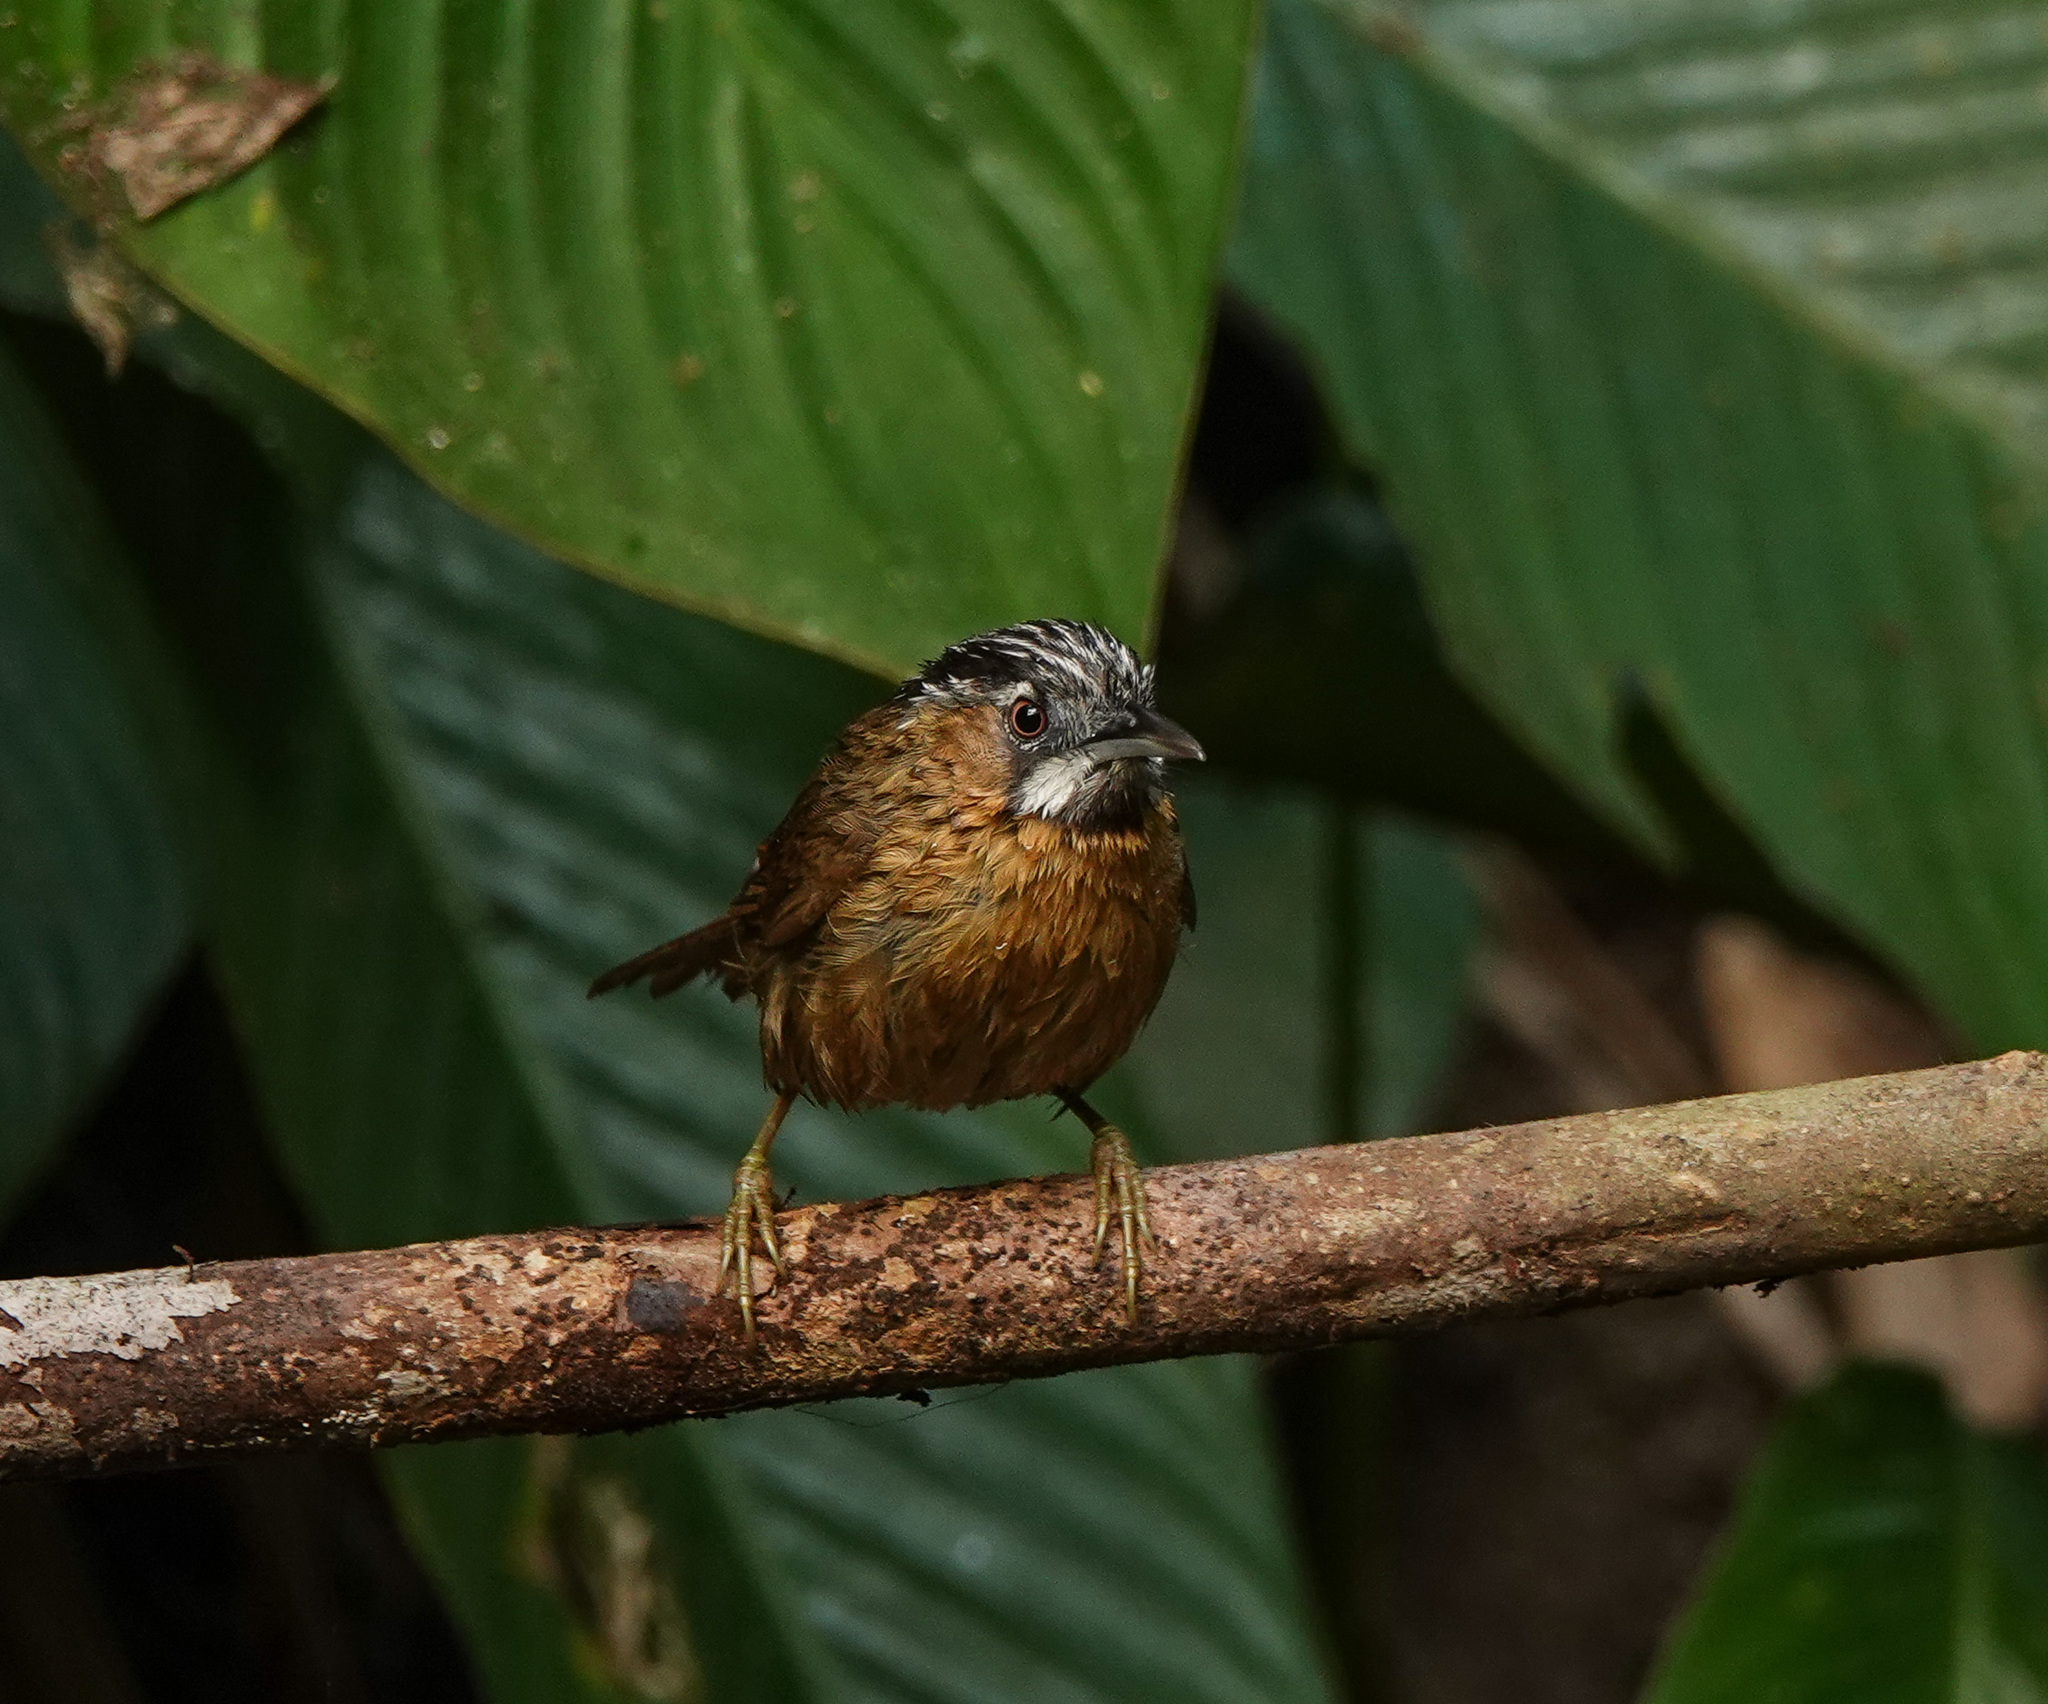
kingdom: Animalia
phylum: Chordata
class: Aves
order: Passeriformes
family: Timaliidae
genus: Stachyris
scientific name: Stachyris nigriceps
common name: Grey-throated babbler
